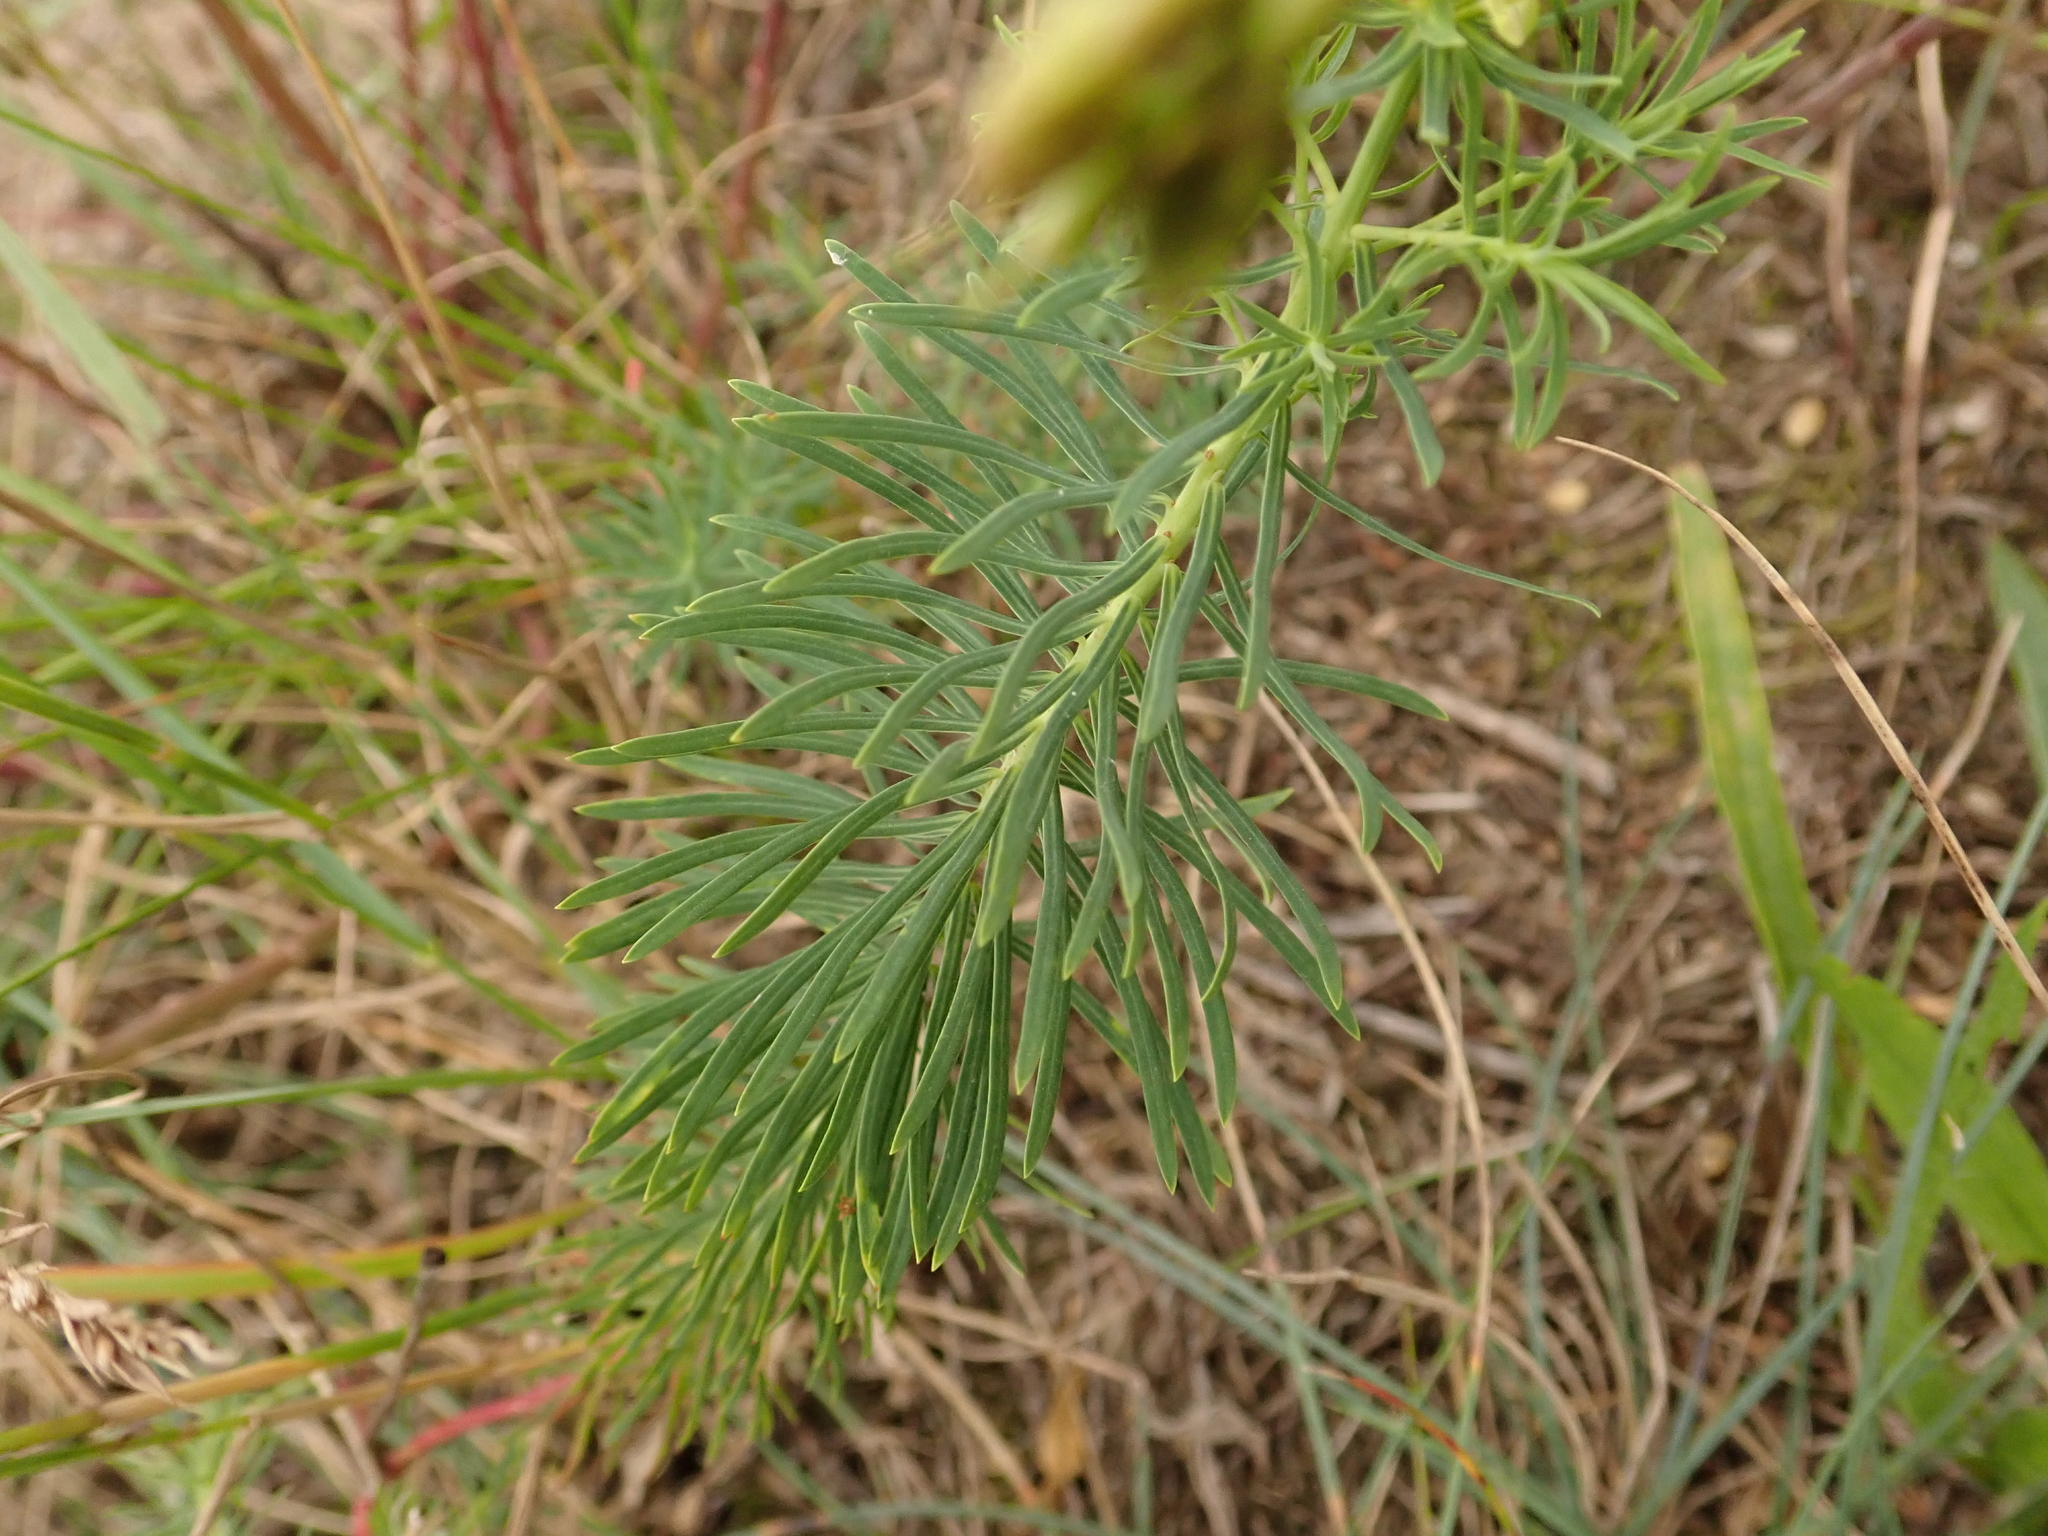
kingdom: Plantae
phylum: Tracheophyta
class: Magnoliopsida
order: Malpighiales
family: Euphorbiaceae
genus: Euphorbia
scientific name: Euphorbia cyparissias
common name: Cypress spurge
